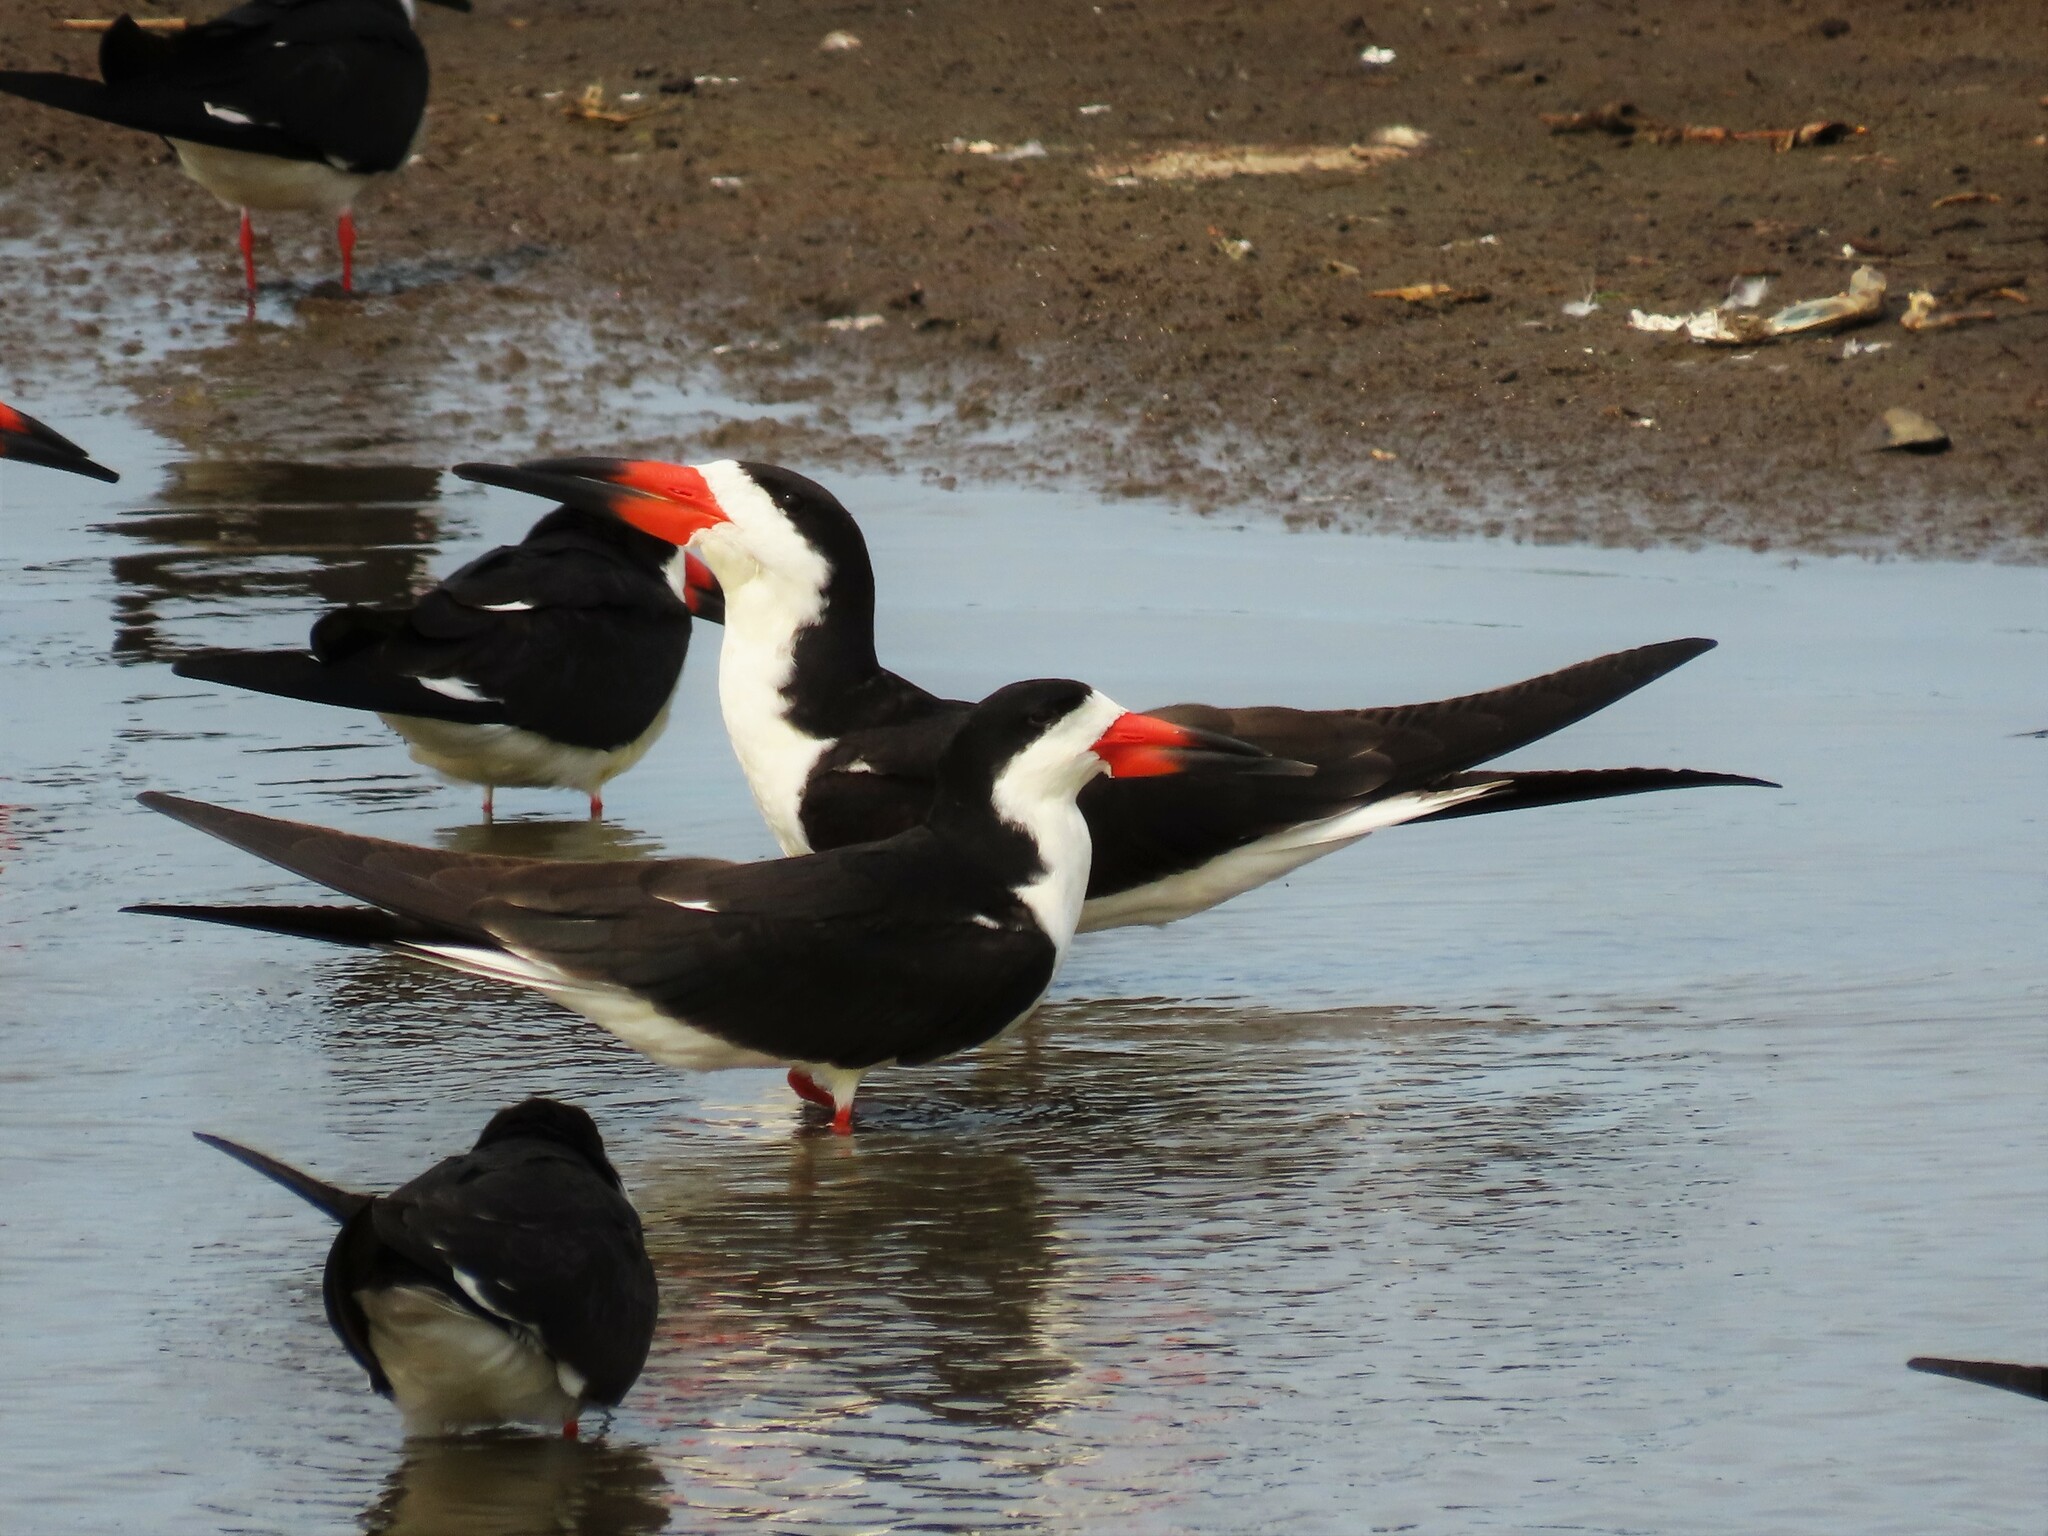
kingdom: Animalia
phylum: Chordata
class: Aves
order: Charadriiformes
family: Laridae
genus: Rynchops
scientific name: Rynchops niger
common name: Black skimmer
